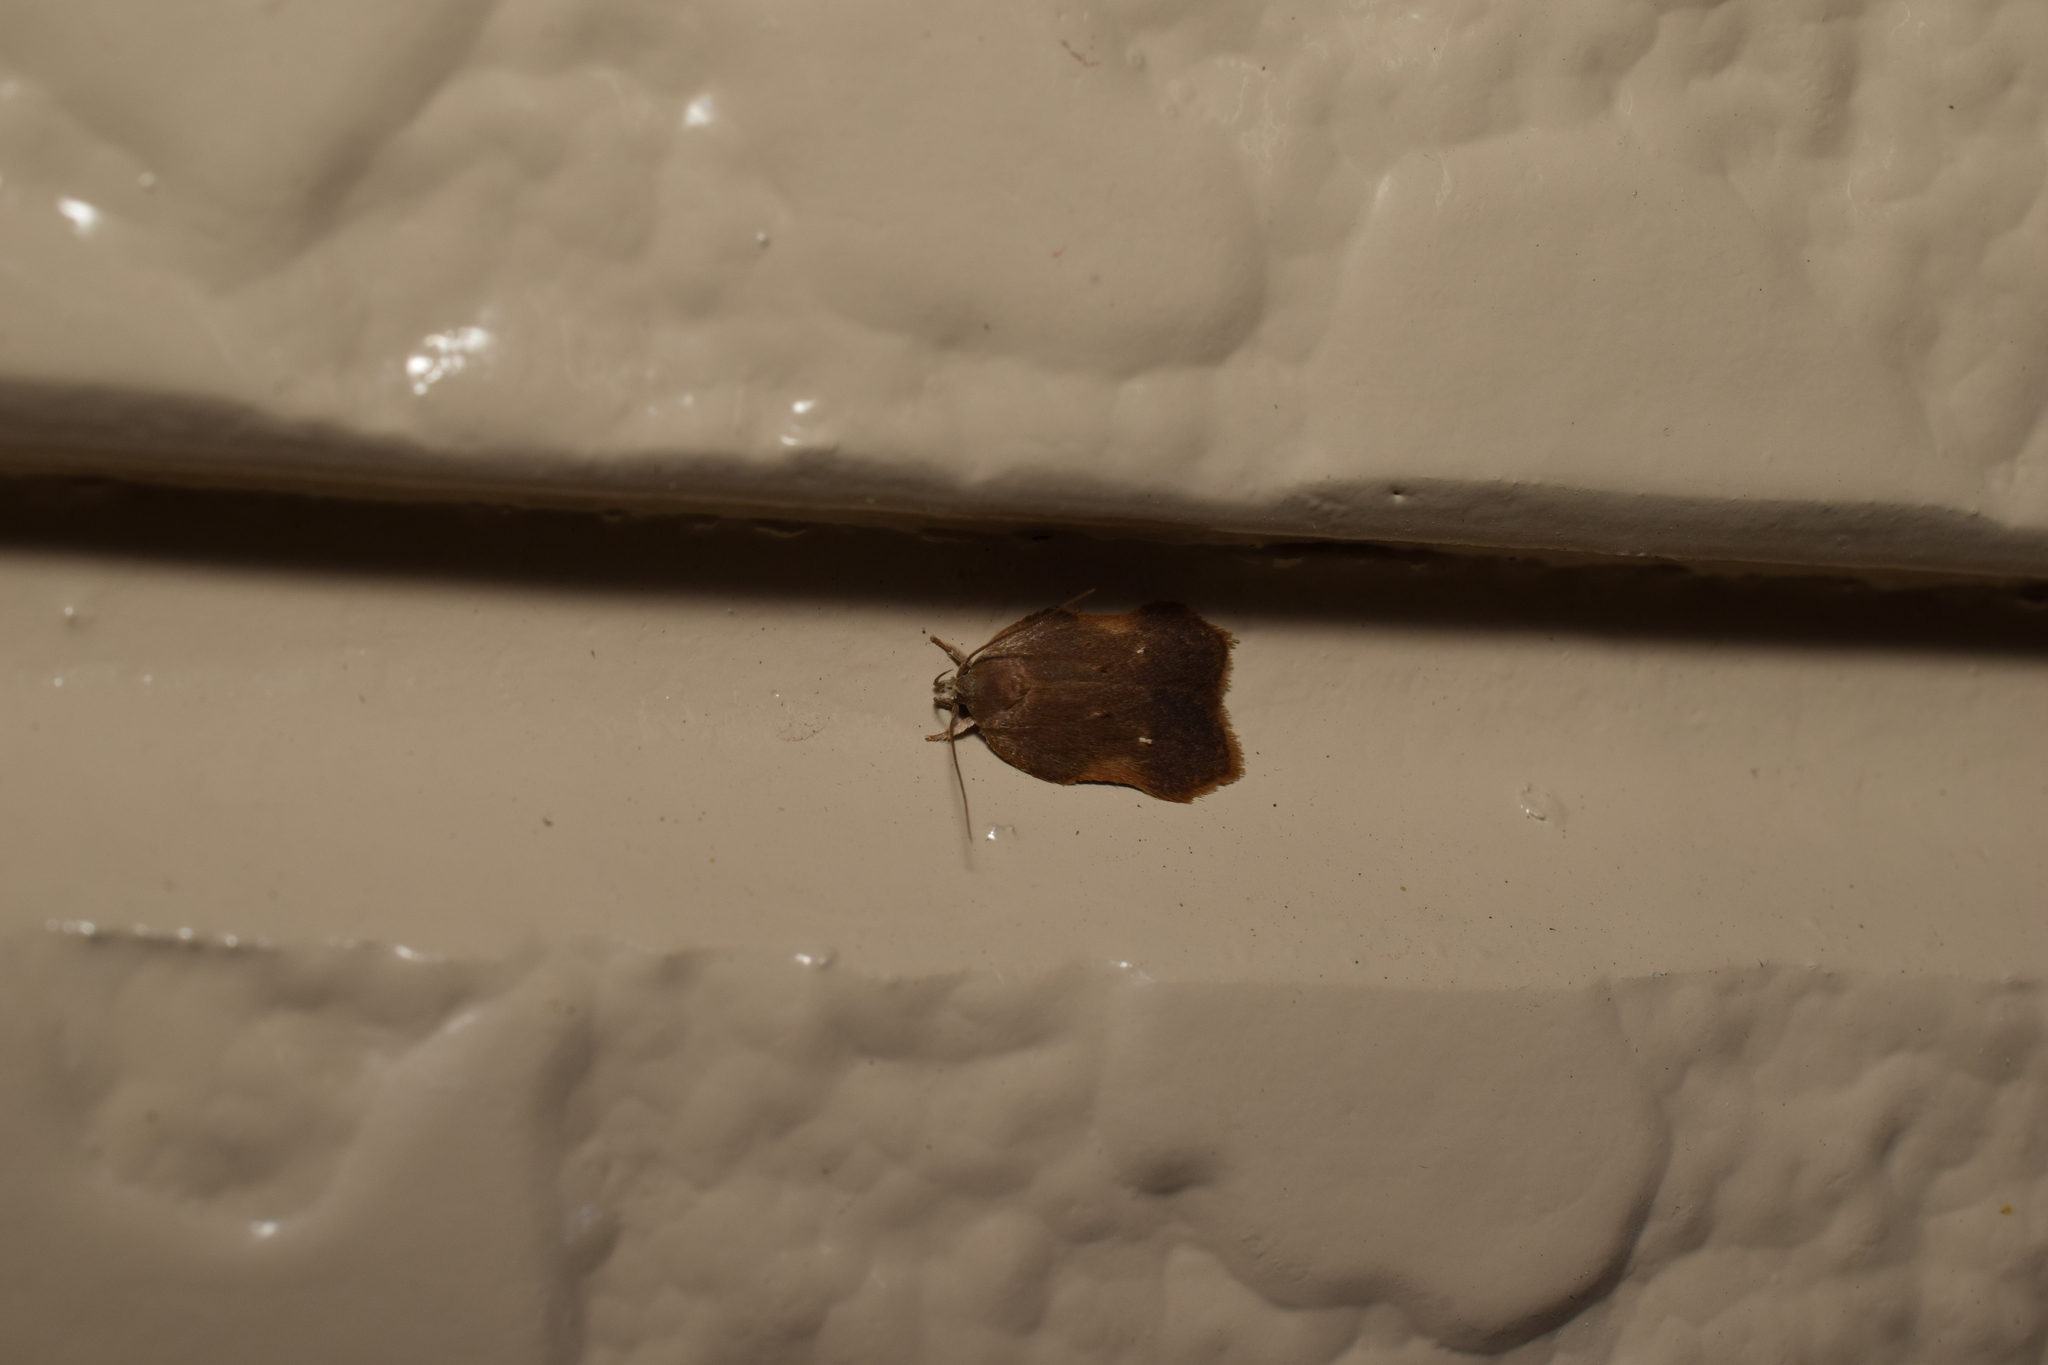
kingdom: Animalia
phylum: Arthropoda
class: Insecta
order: Lepidoptera
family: Depressariidae
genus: Acria
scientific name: Acria ceramitis
